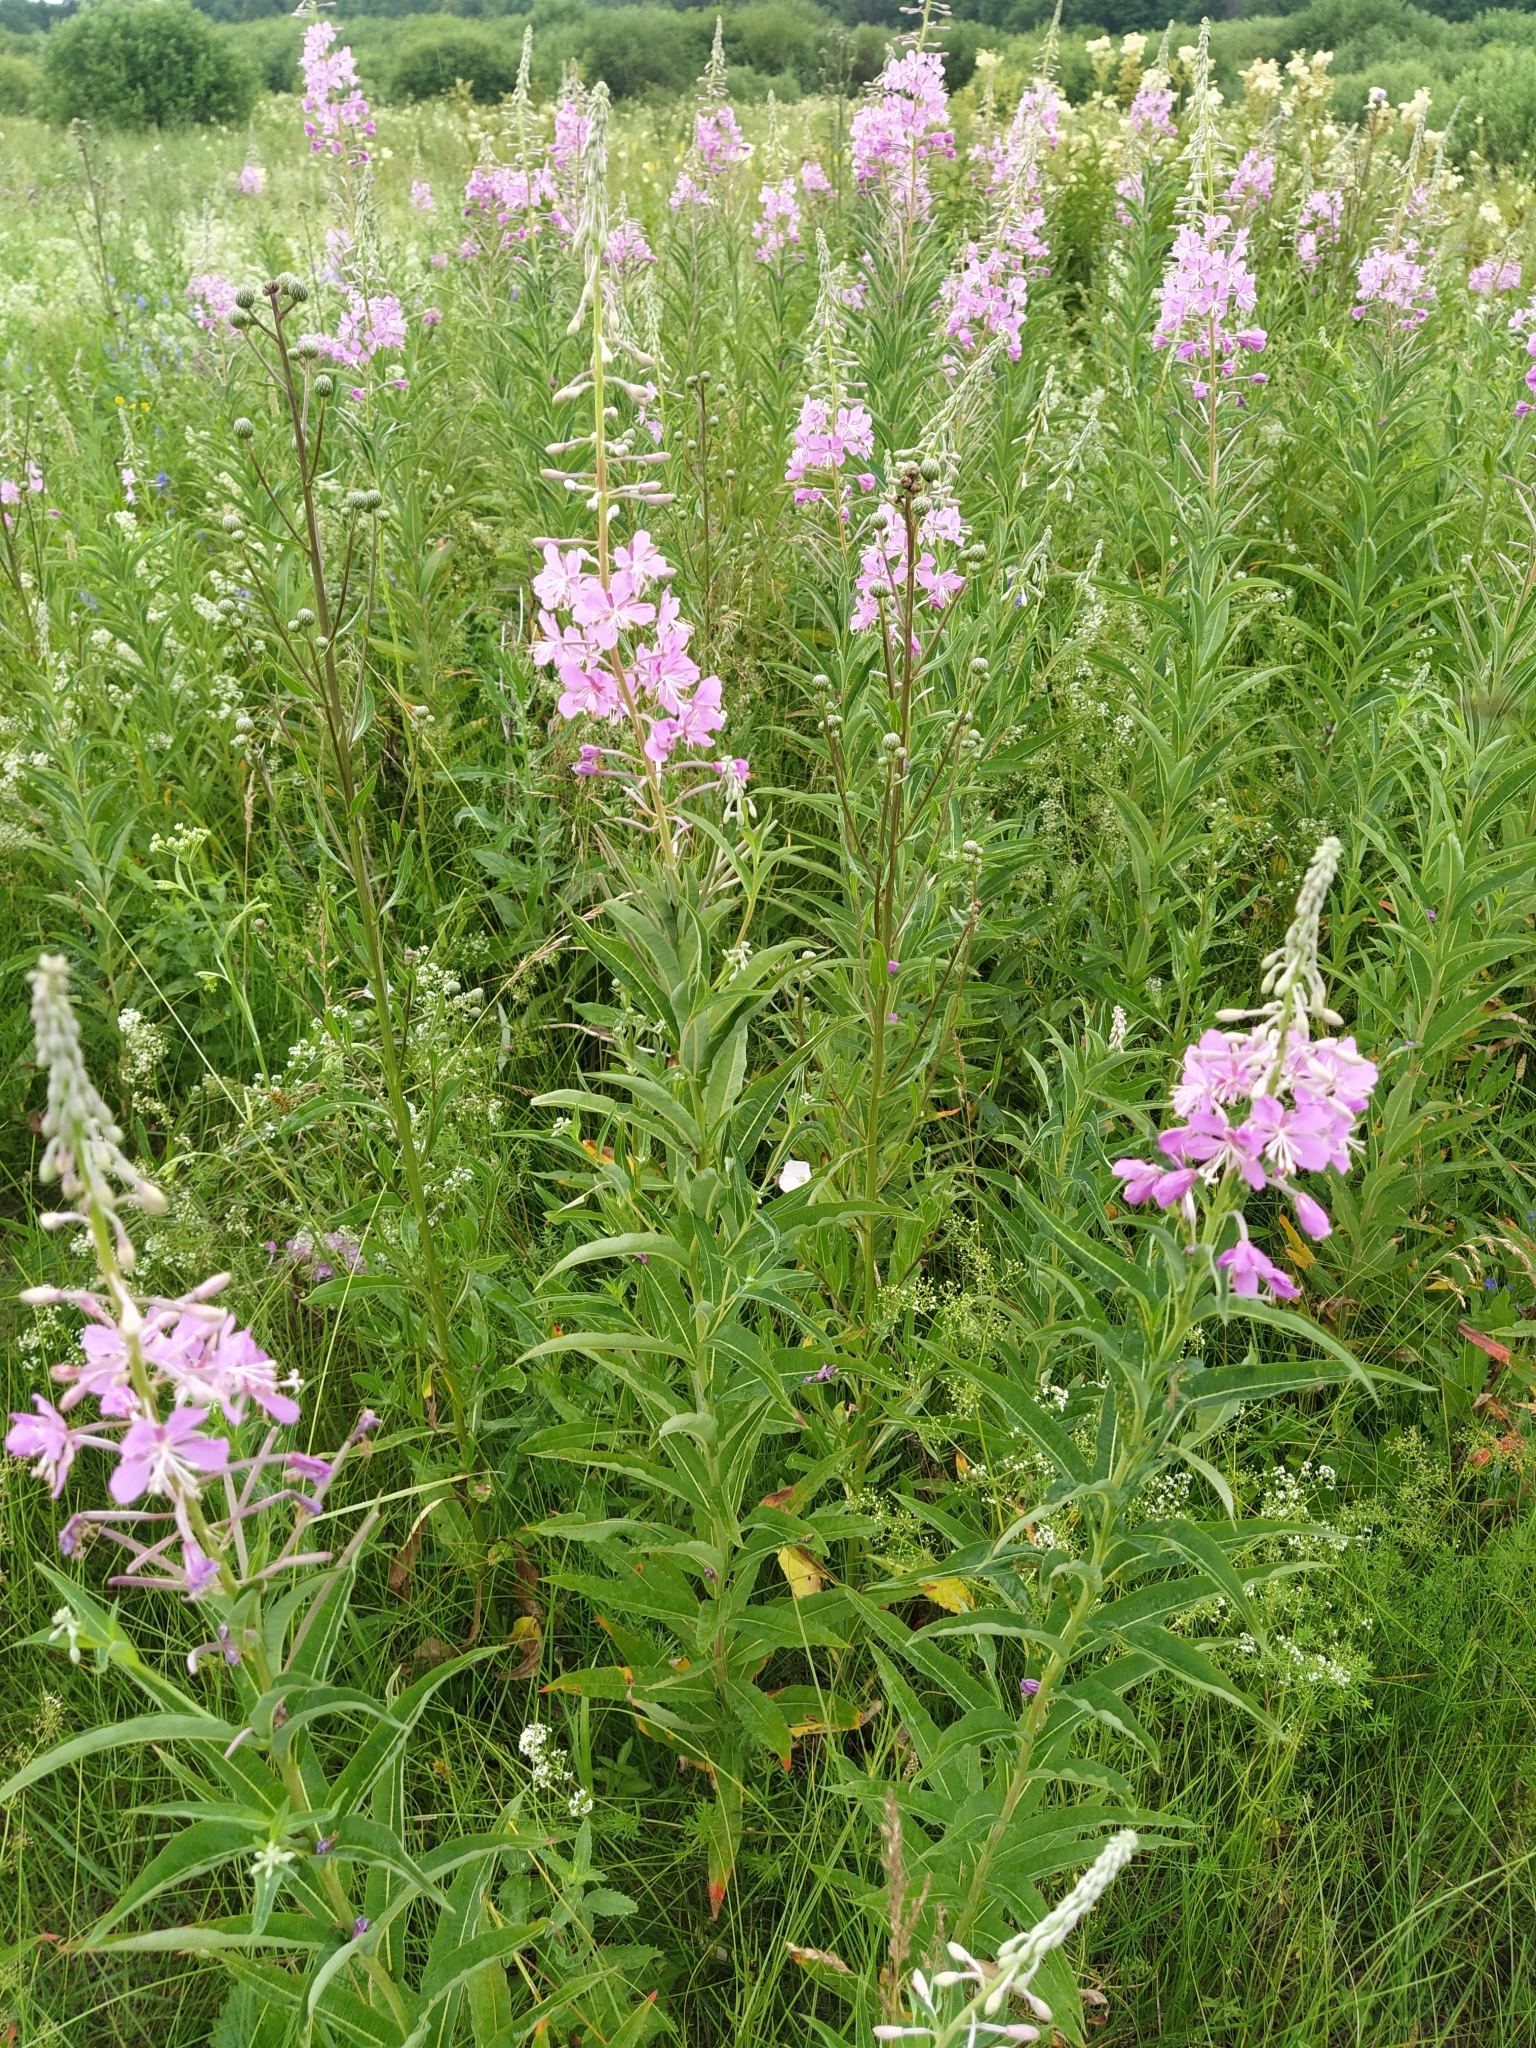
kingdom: Plantae
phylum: Tracheophyta
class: Magnoliopsida
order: Myrtales
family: Onagraceae
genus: Chamaenerion
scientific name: Chamaenerion angustifolium
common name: Fireweed
